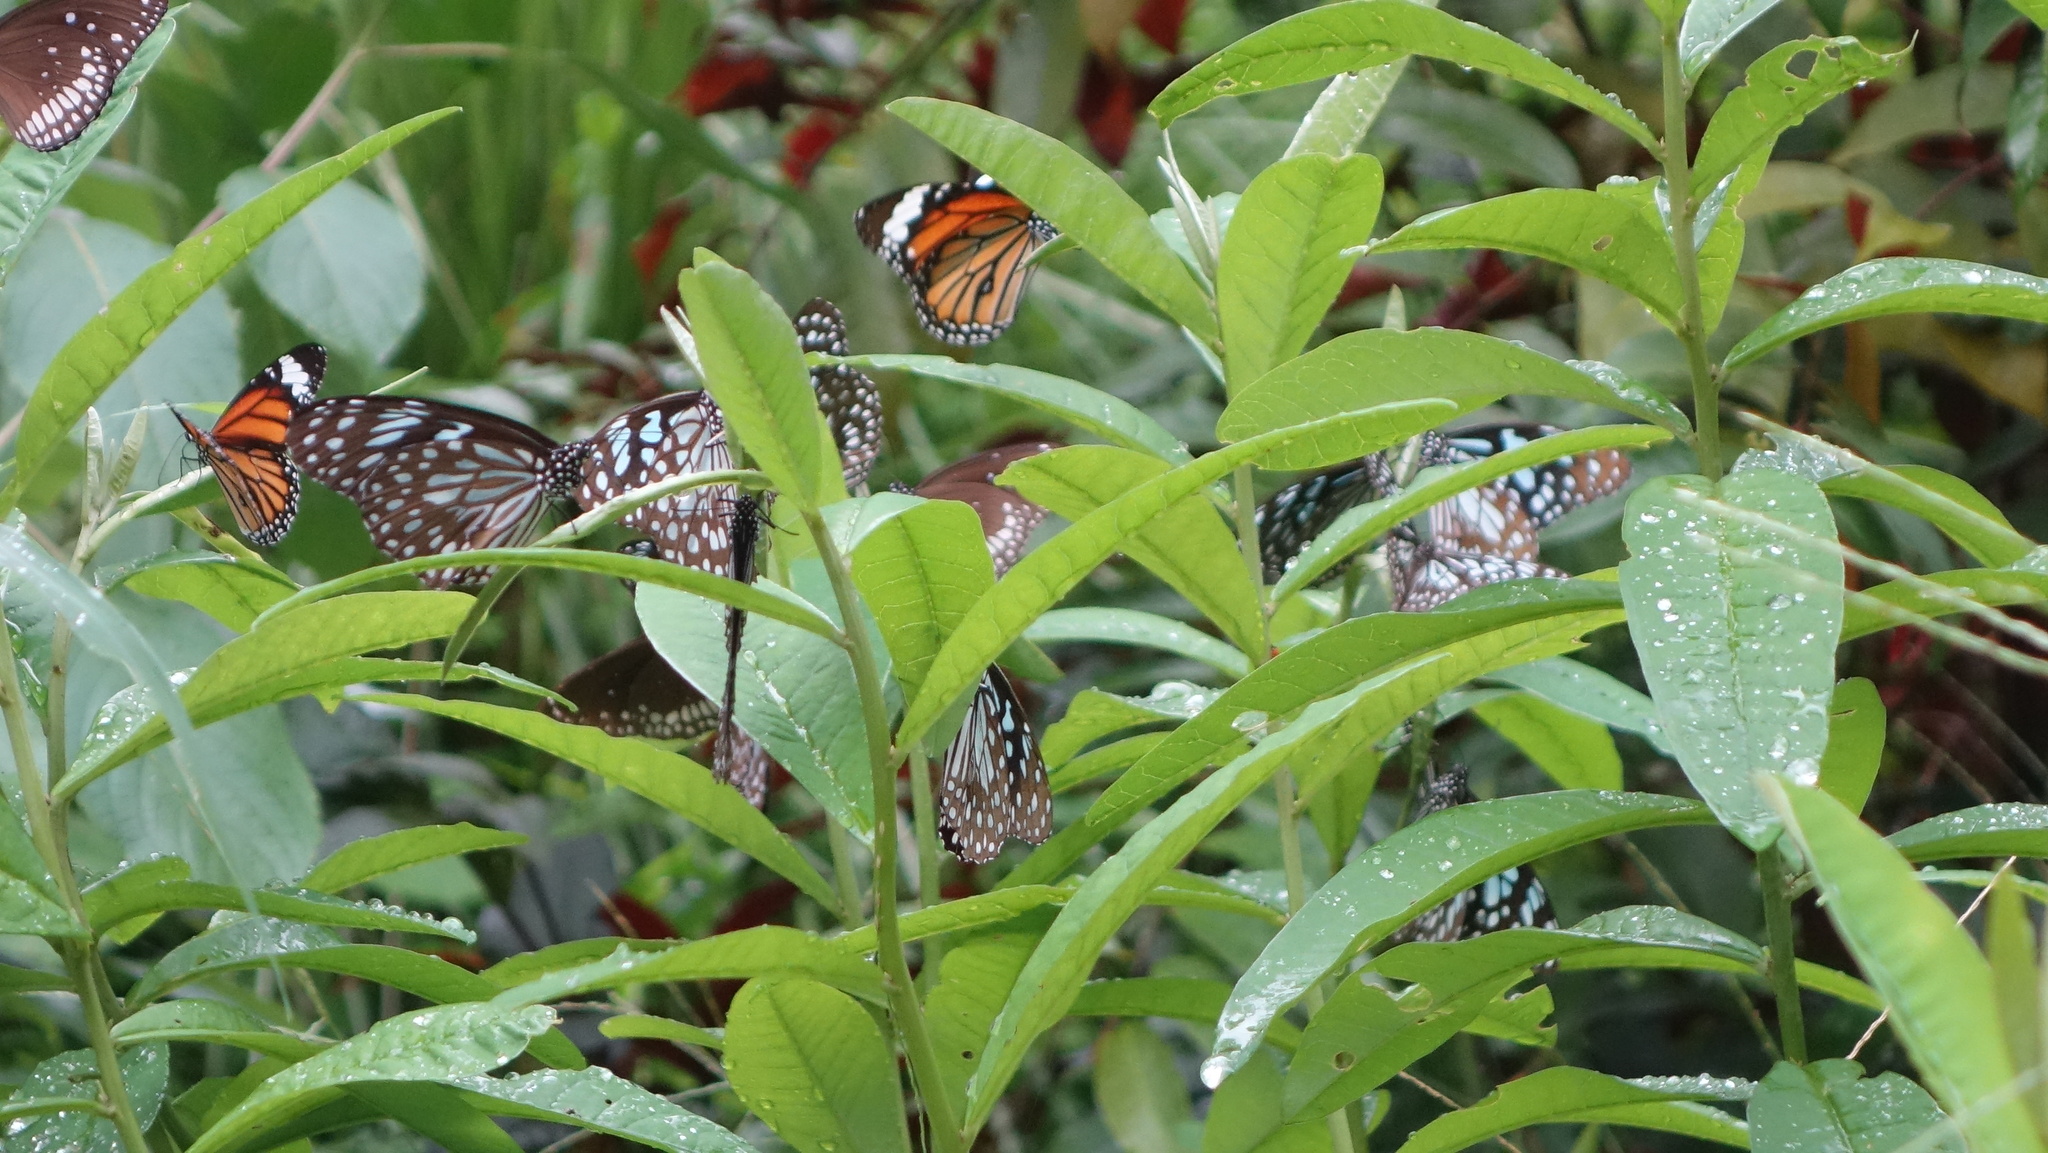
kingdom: Animalia
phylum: Arthropoda
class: Insecta
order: Lepidoptera
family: Nymphalidae
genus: Danaus
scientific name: Danaus genutia
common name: Common tiger butterfly
